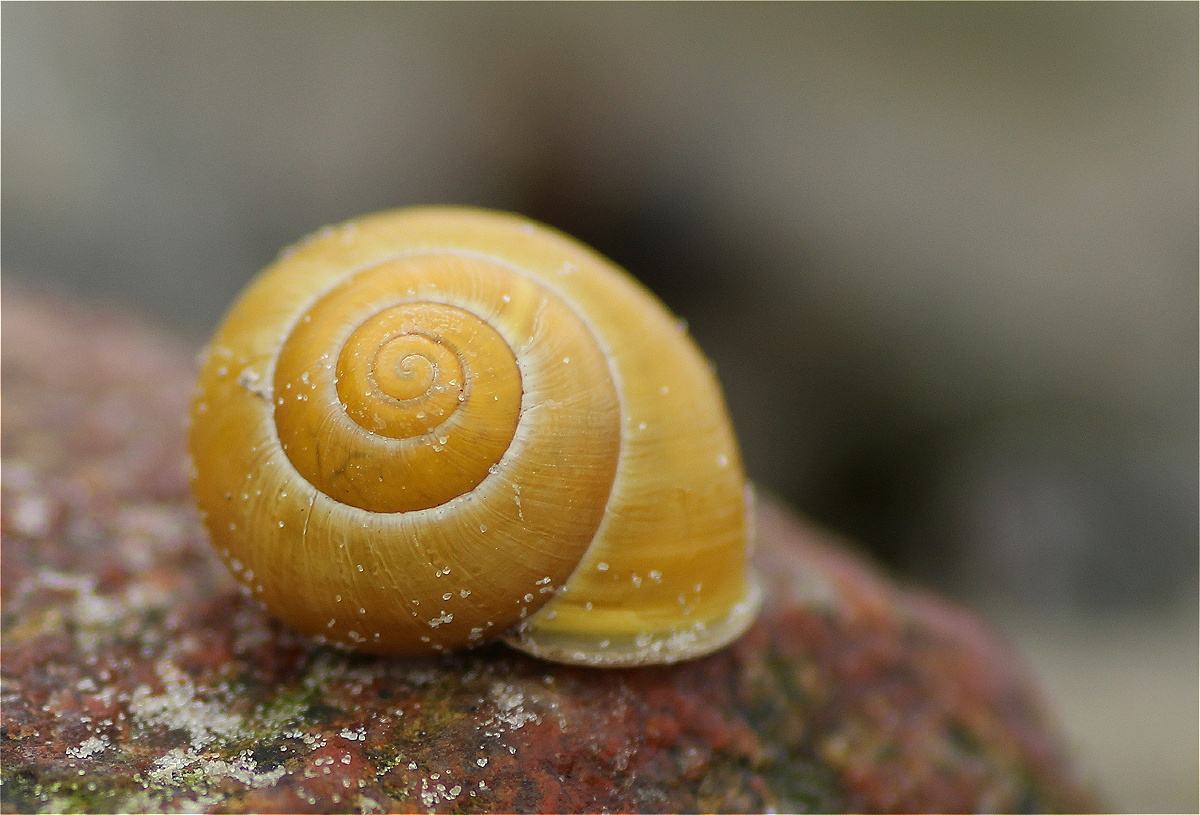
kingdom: Animalia
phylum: Mollusca
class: Gastropoda
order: Stylommatophora
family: Helicidae
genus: Cepaea
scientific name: Cepaea hortensis
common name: White-lip gardensnail
